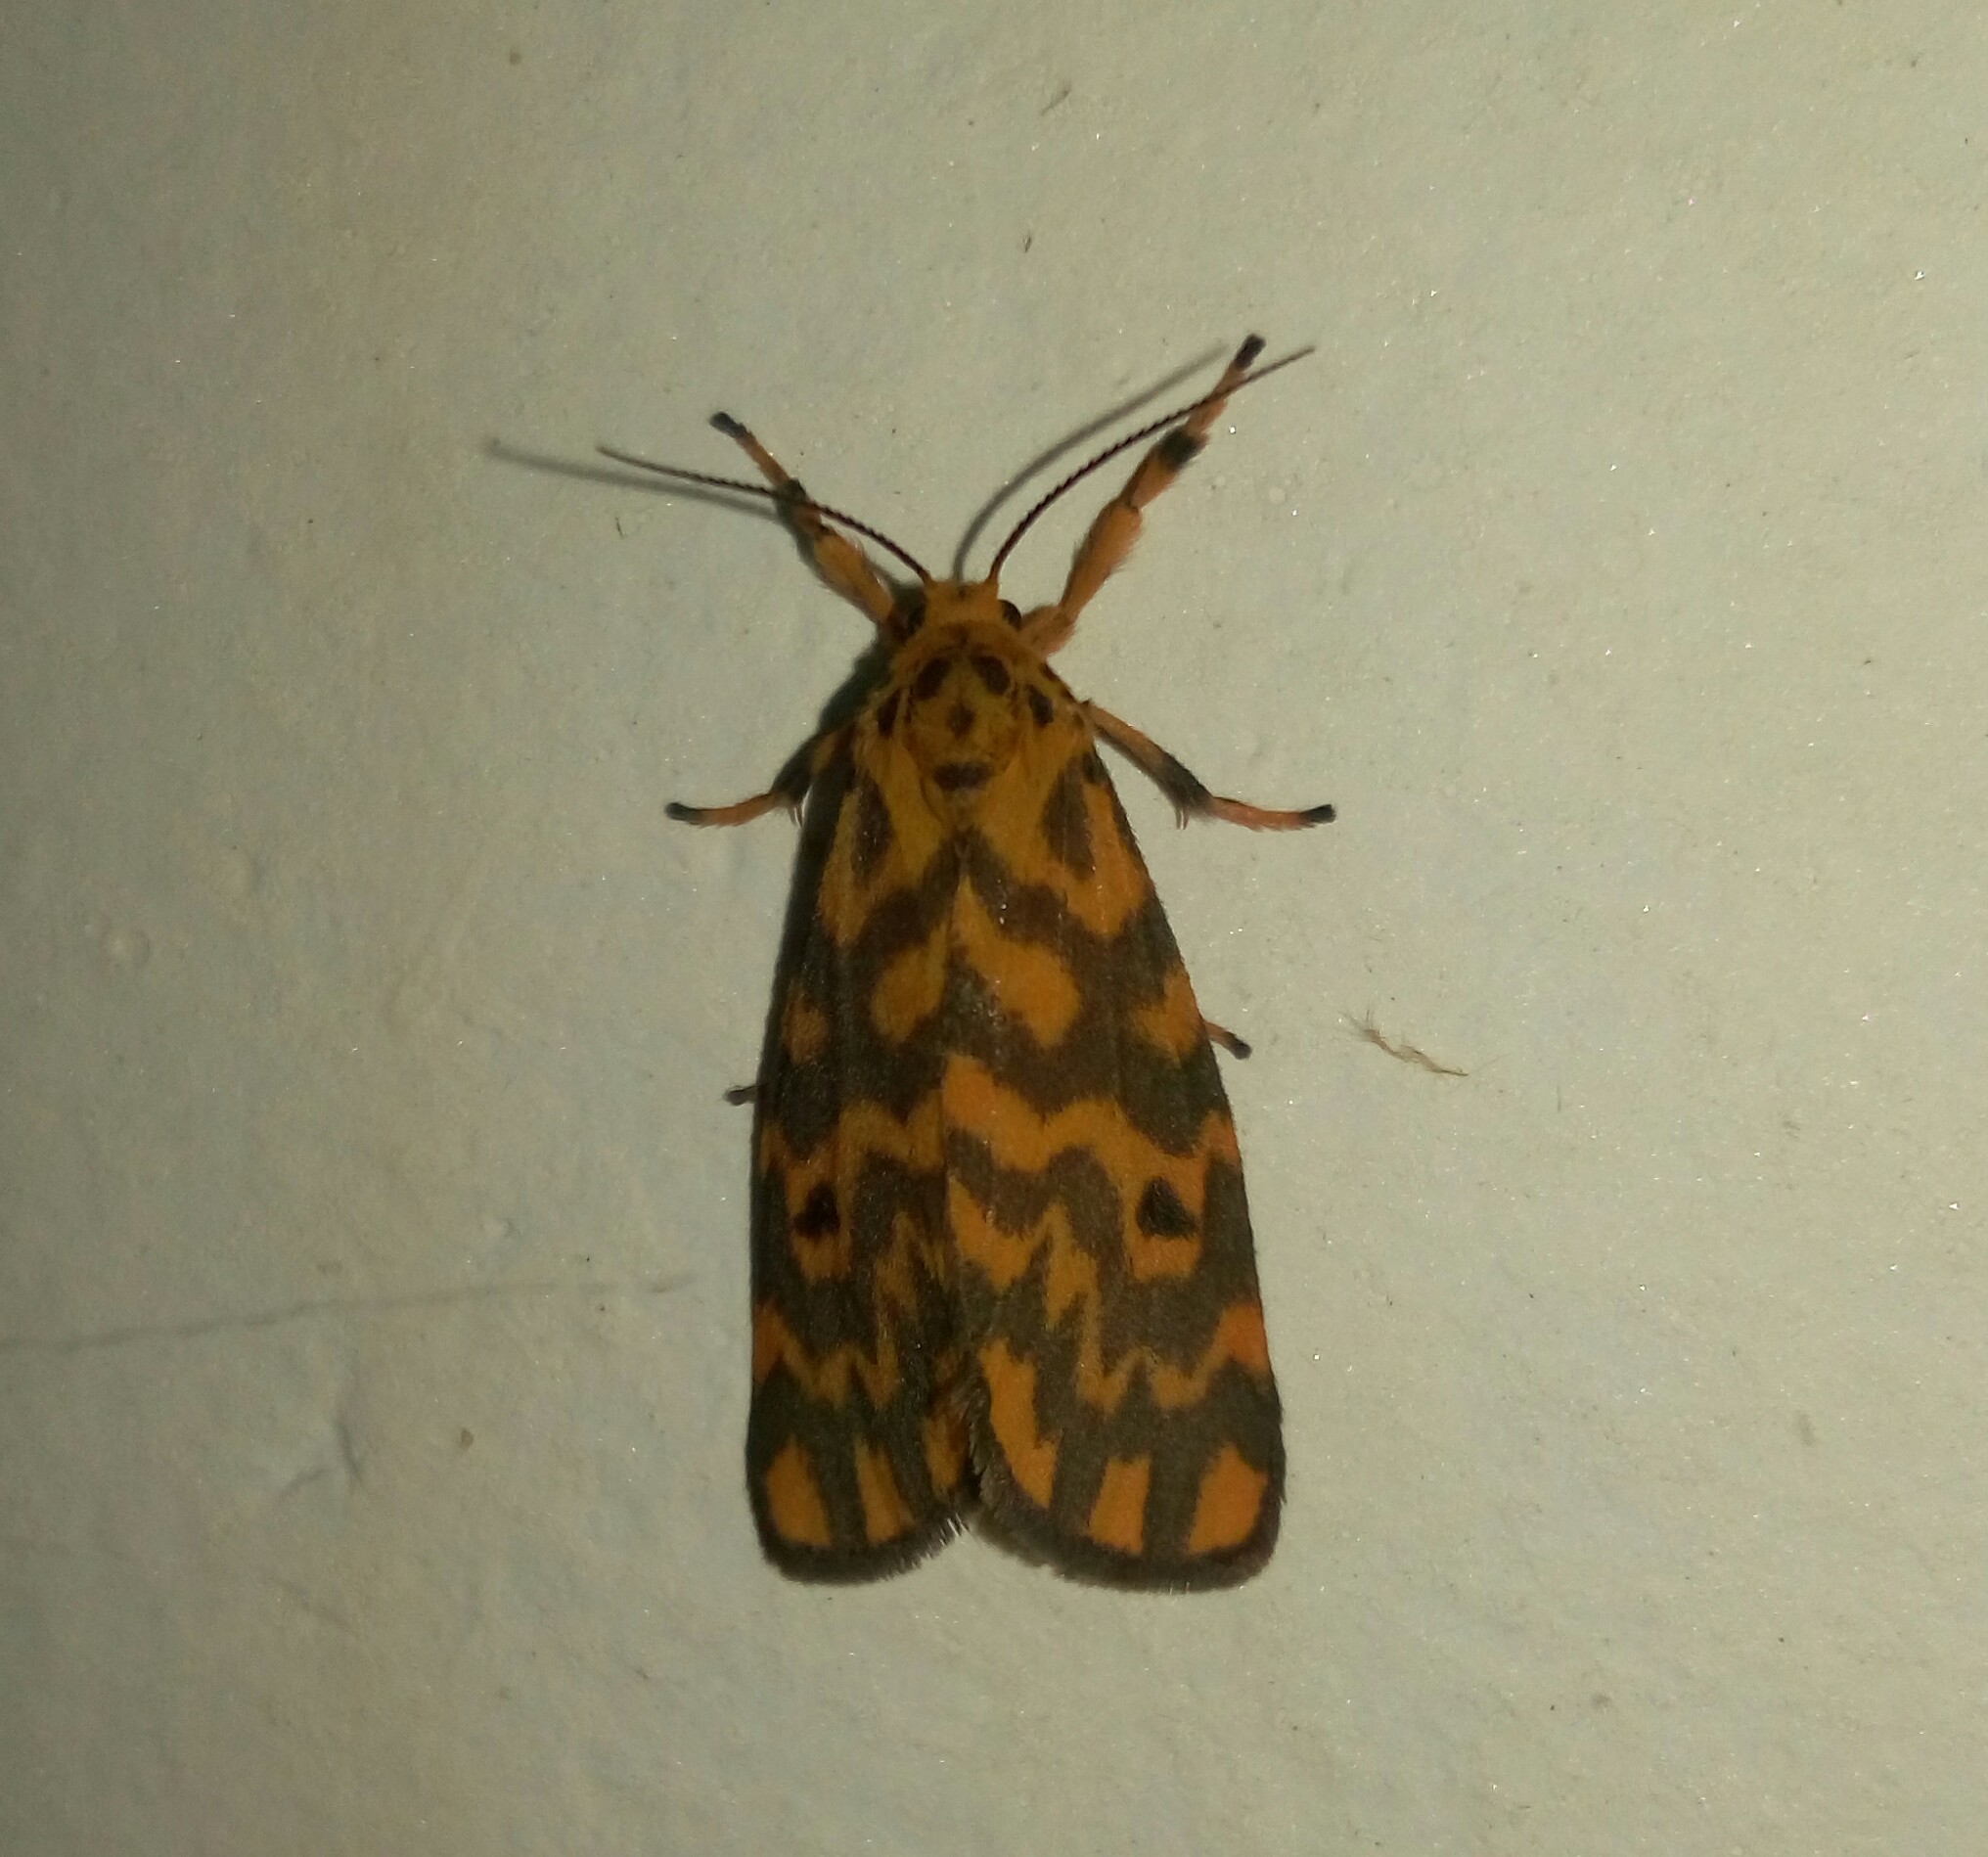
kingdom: Animalia
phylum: Arthropoda
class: Insecta
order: Lepidoptera
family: Erebidae
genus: Nepita
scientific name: Nepita conferta
